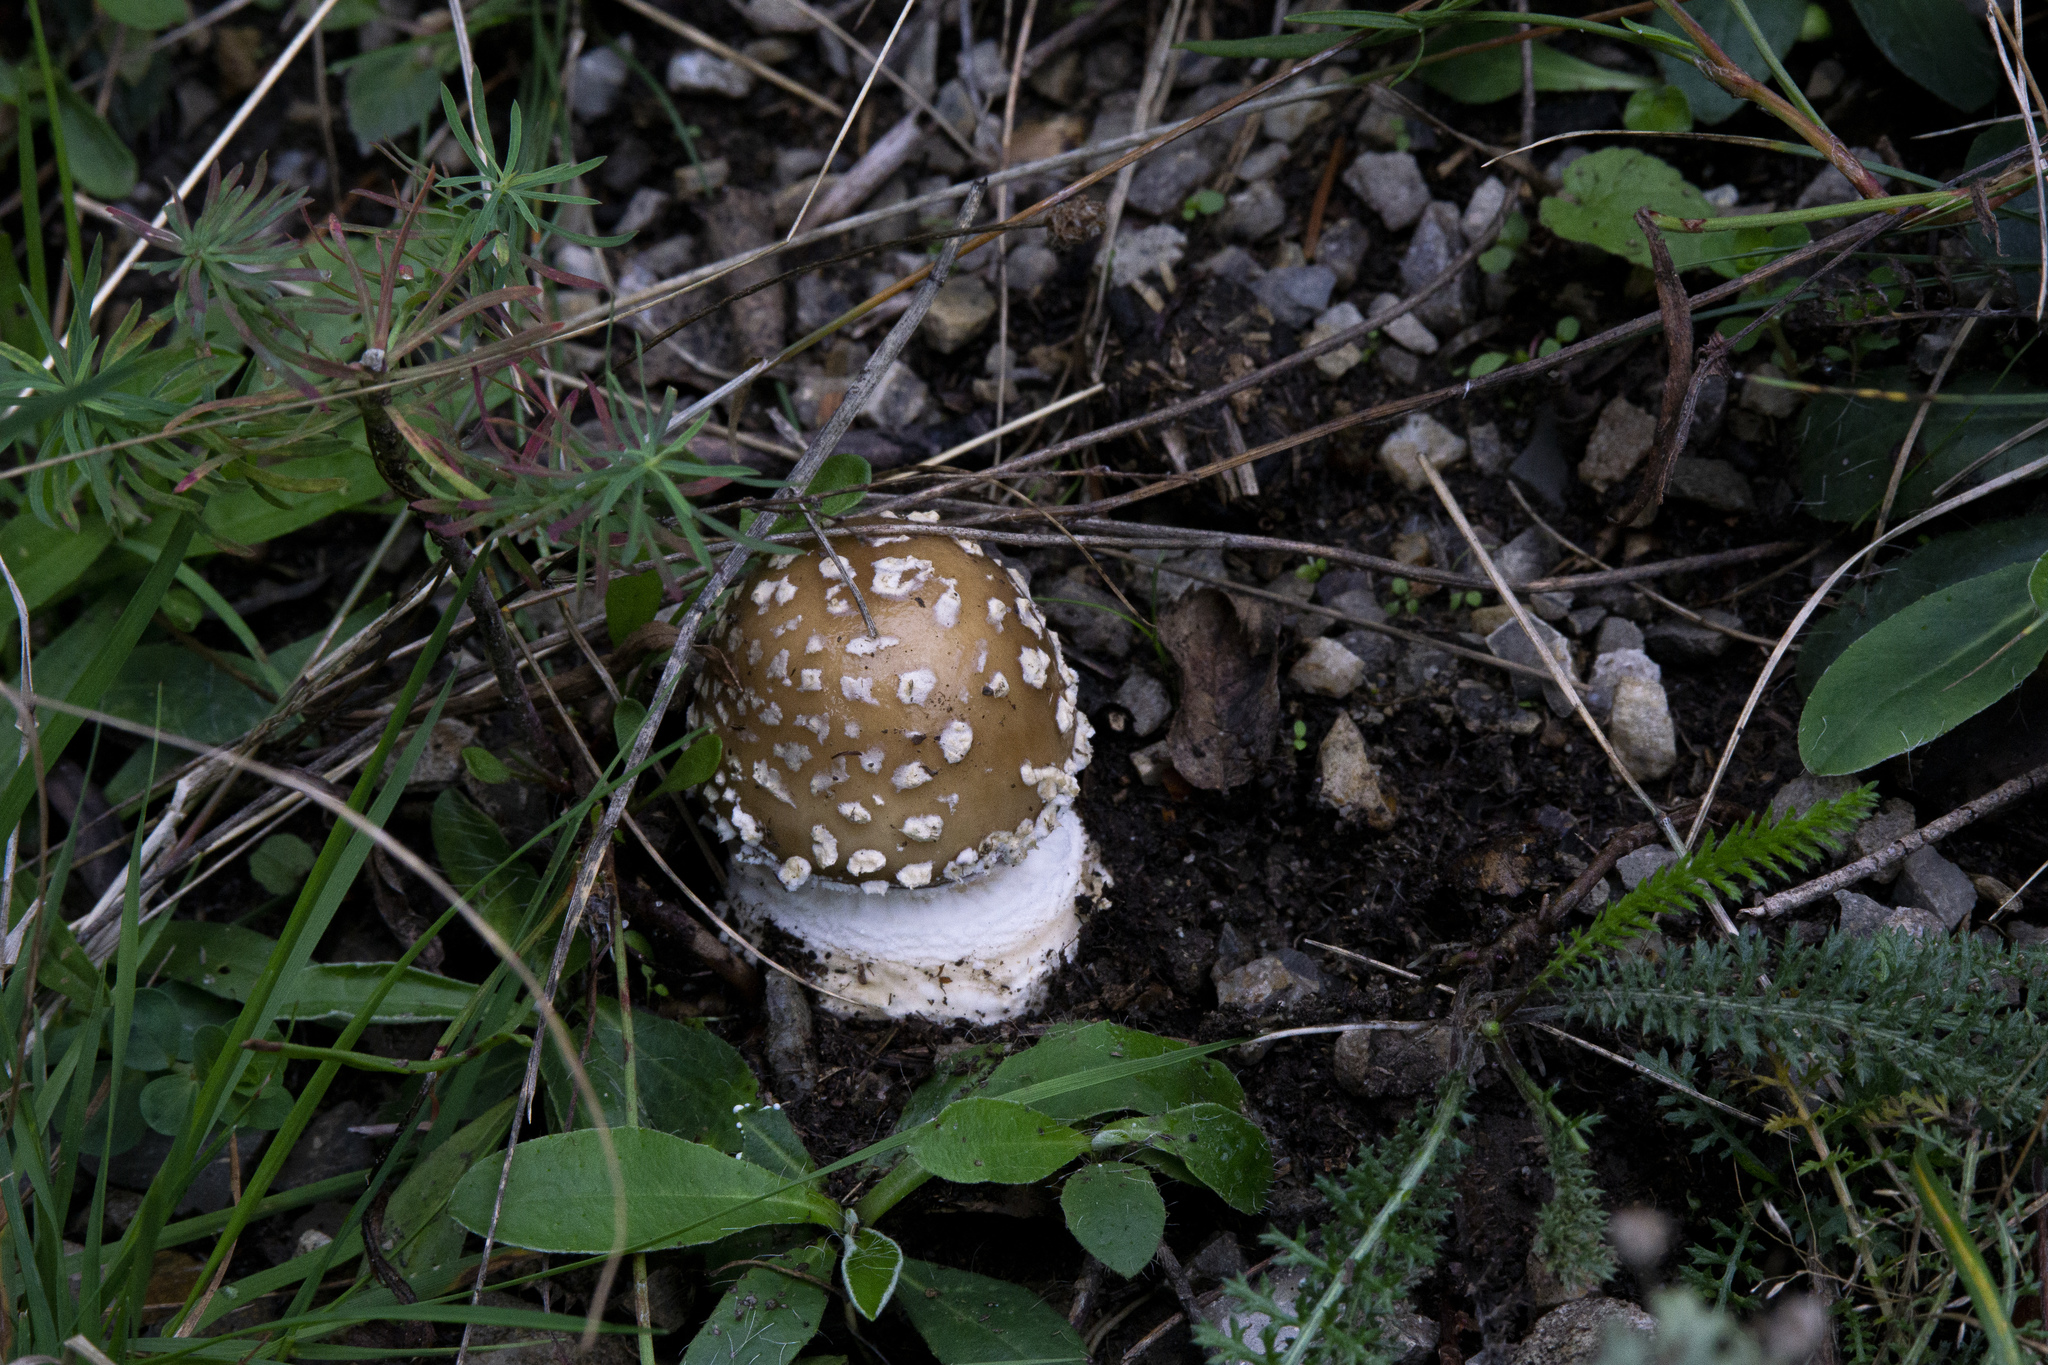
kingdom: Fungi
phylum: Basidiomycota
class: Agaricomycetes
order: Agaricales
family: Amanitaceae
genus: Amanita
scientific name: Amanita pantherina
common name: Panthercap
